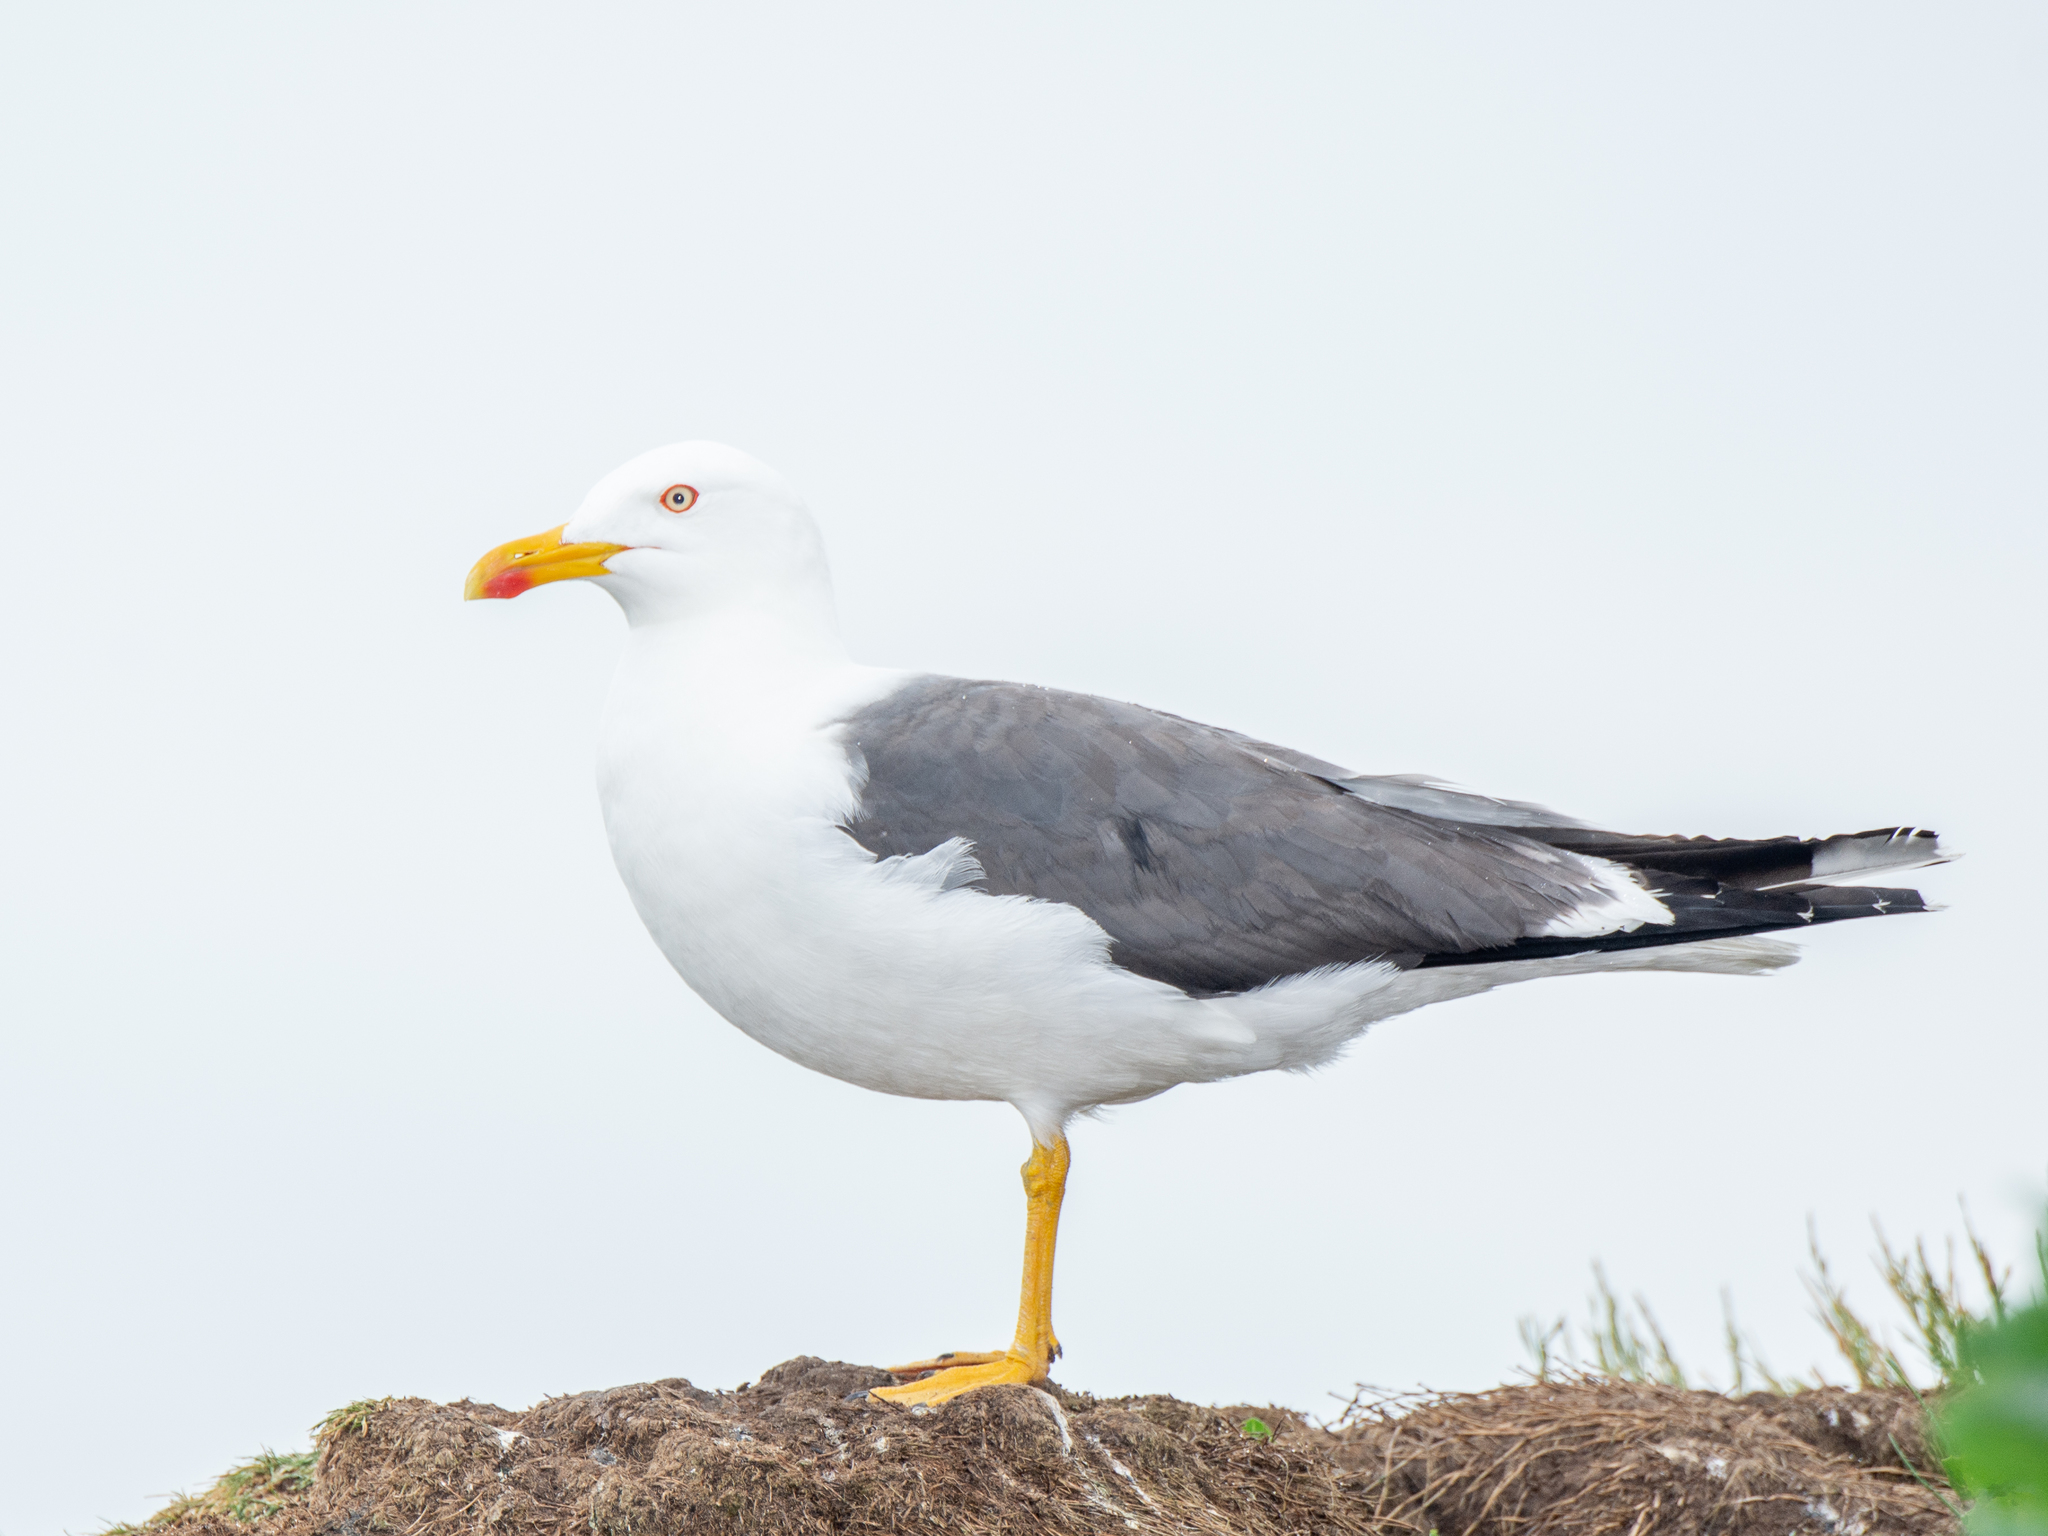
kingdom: Animalia
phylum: Chordata
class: Aves
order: Charadriiformes
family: Laridae
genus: Larus
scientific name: Larus fuscus
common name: Lesser black-backed gull
